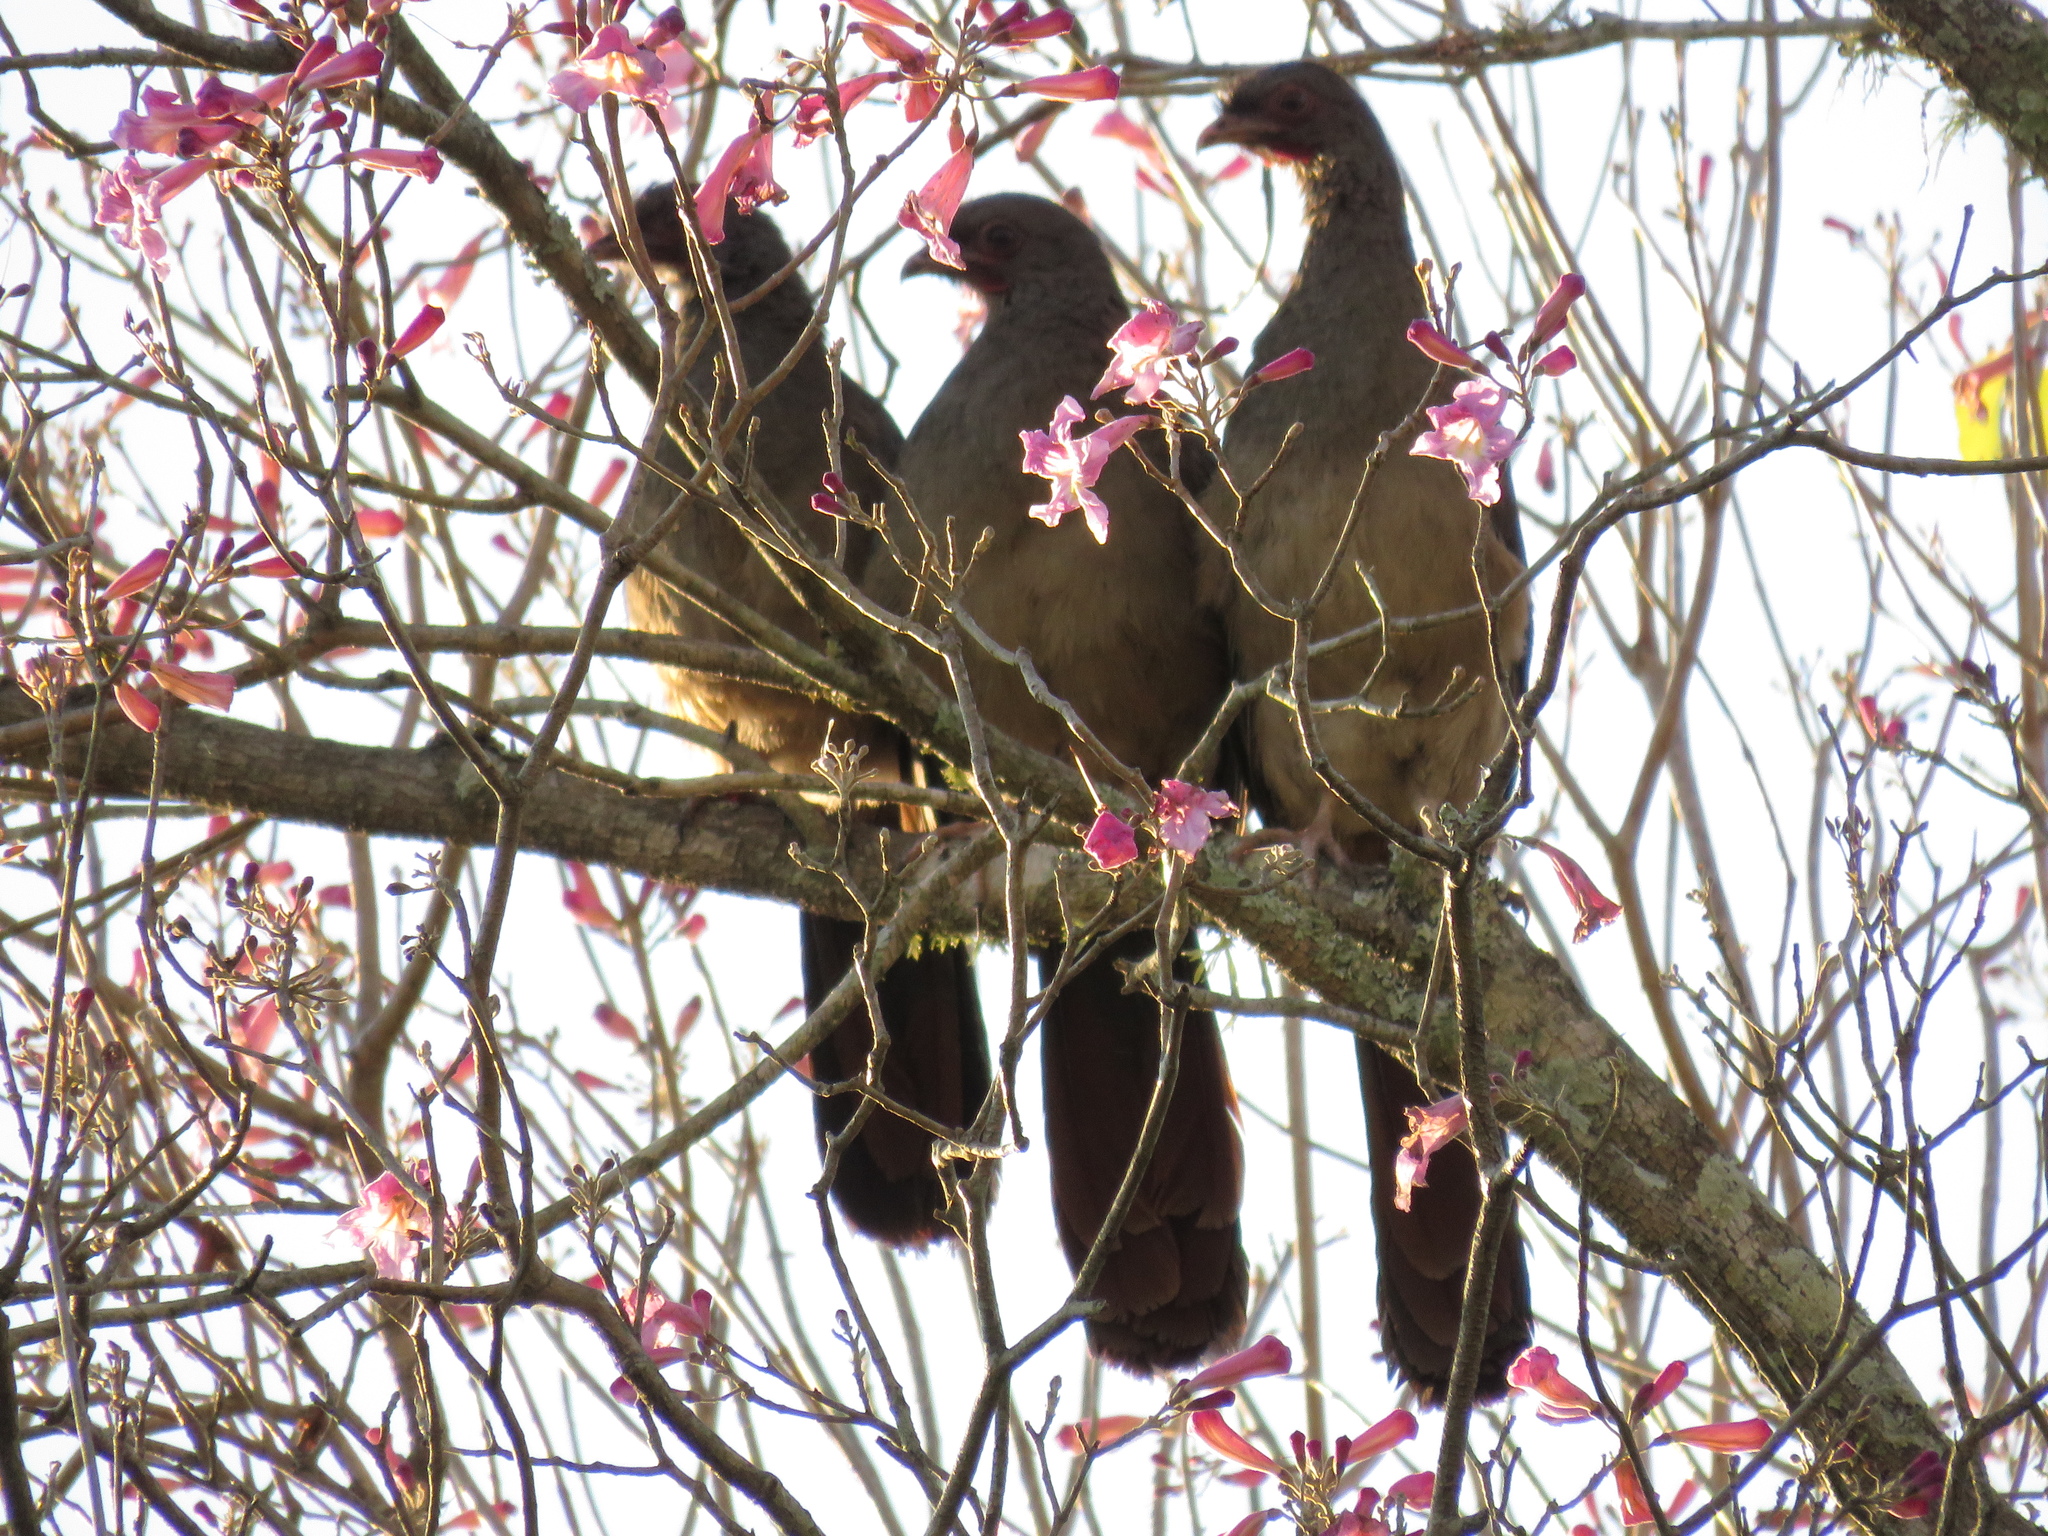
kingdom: Animalia
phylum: Chordata
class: Aves
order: Galliformes
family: Cracidae
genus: Ortalis
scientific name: Ortalis canicollis
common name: Chaco chachalaca
